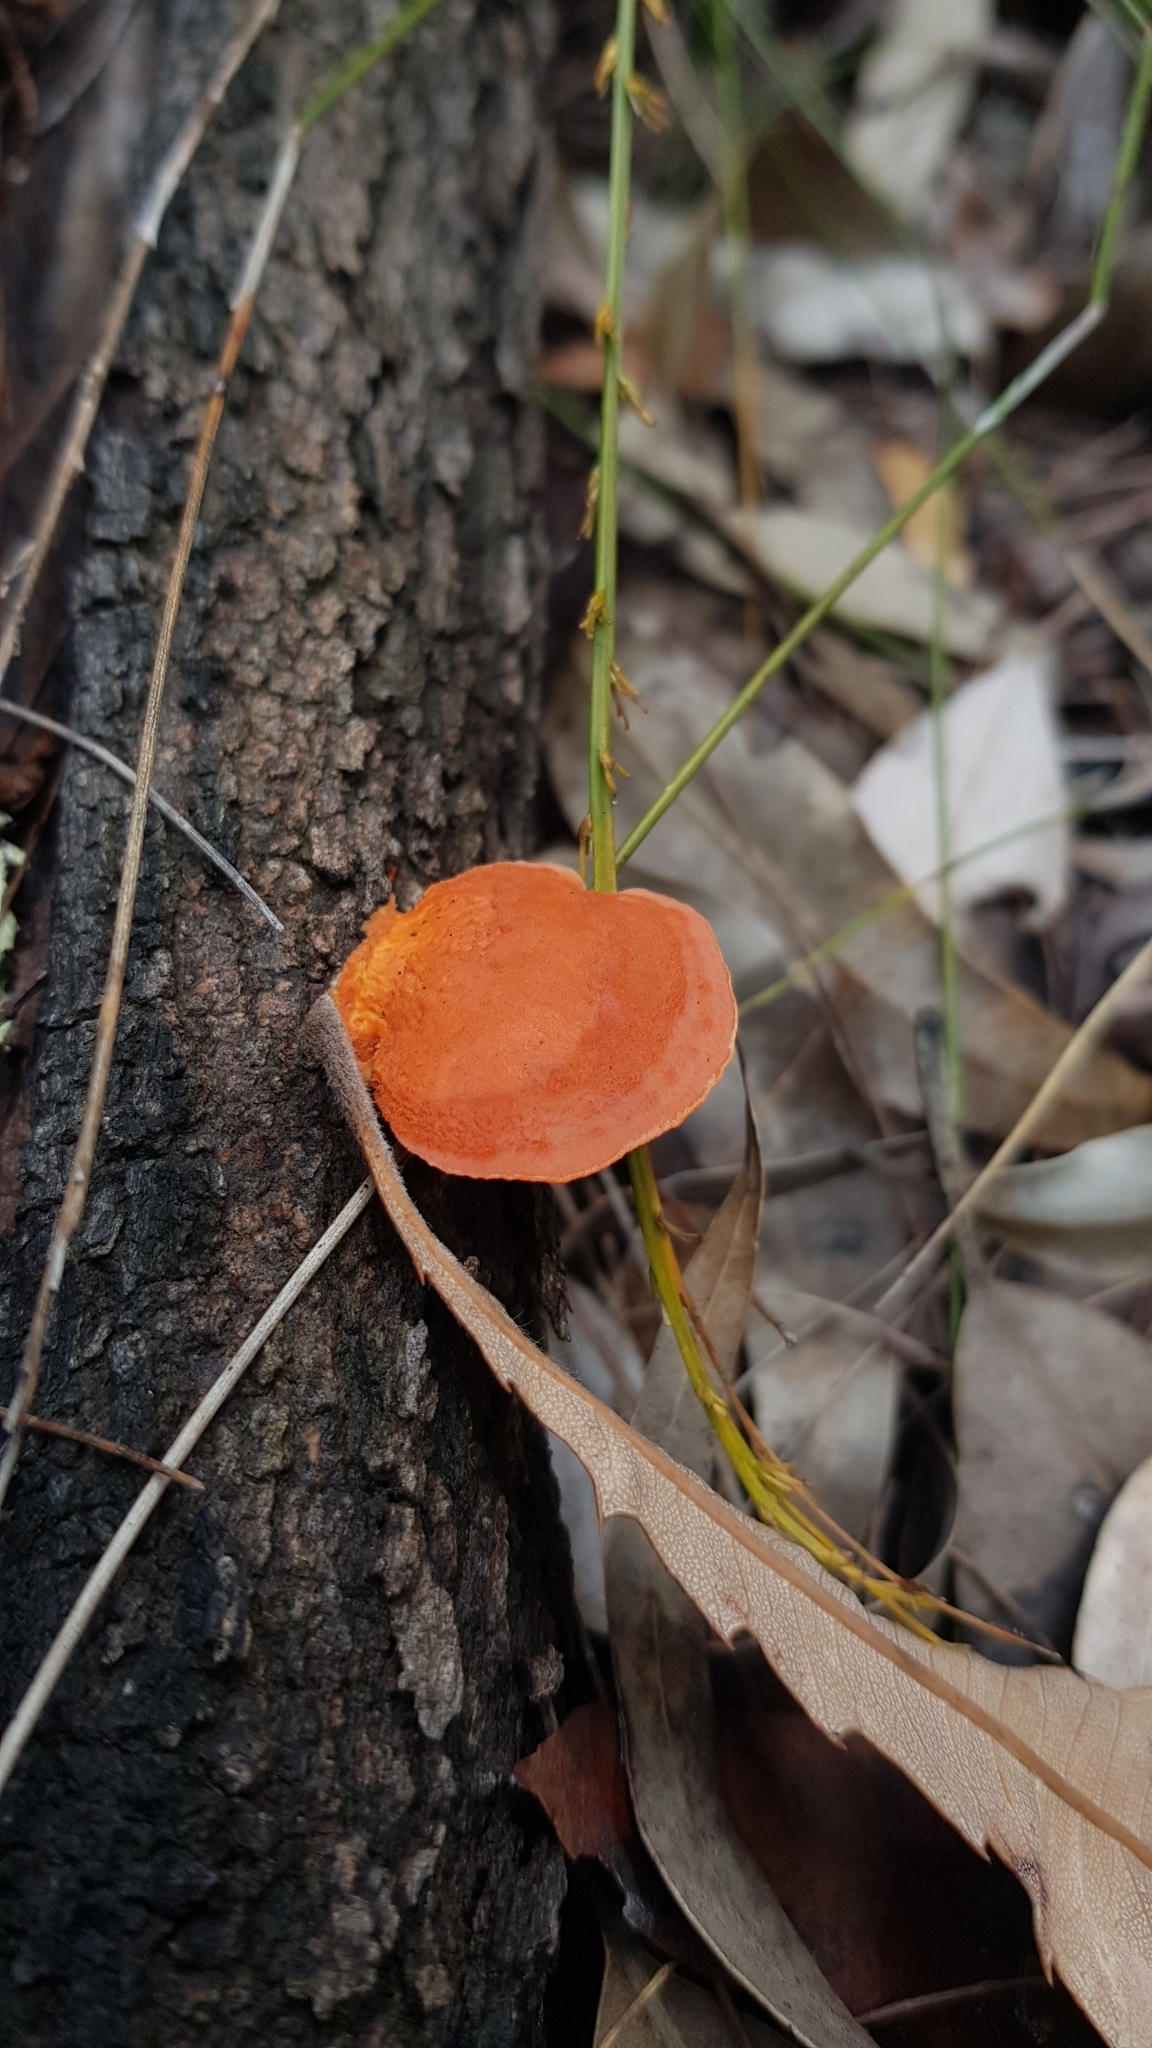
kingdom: Fungi
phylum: Basidiomycota
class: Agaricomycetes
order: Polyporales
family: Polyporaceae
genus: Trametes
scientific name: Trametes coccinea
